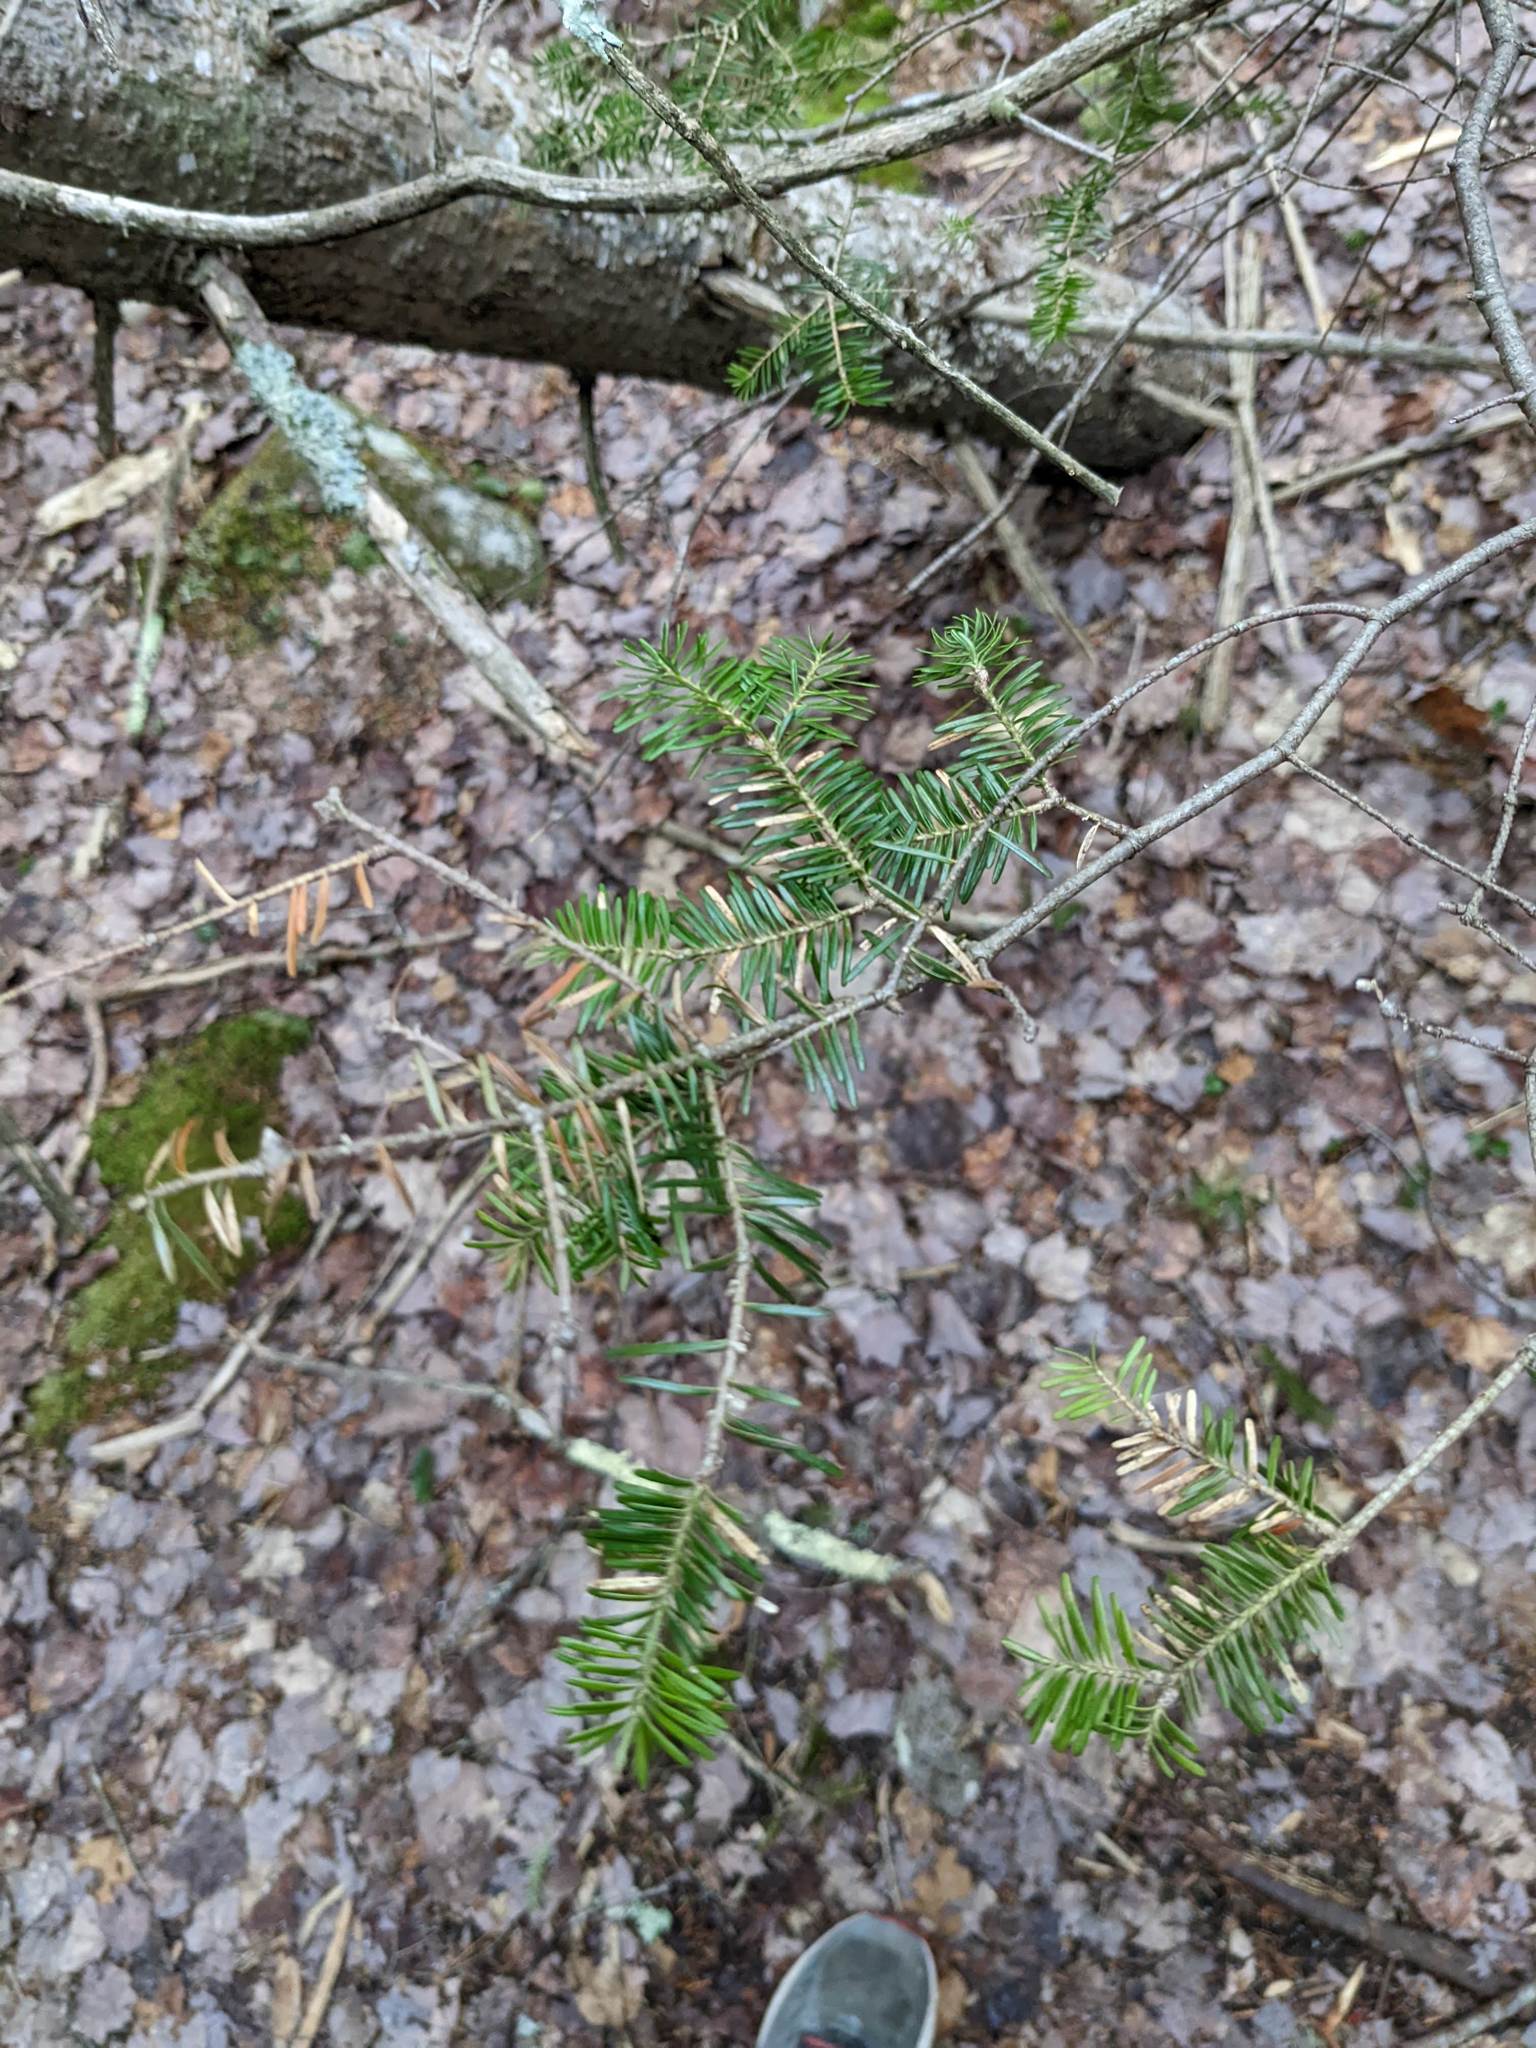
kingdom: Plantae
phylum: Tracheophyta
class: Pinopsida
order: Pinales
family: Pinaceae
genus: Abies
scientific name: Abies balsamea
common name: Balsam fir
